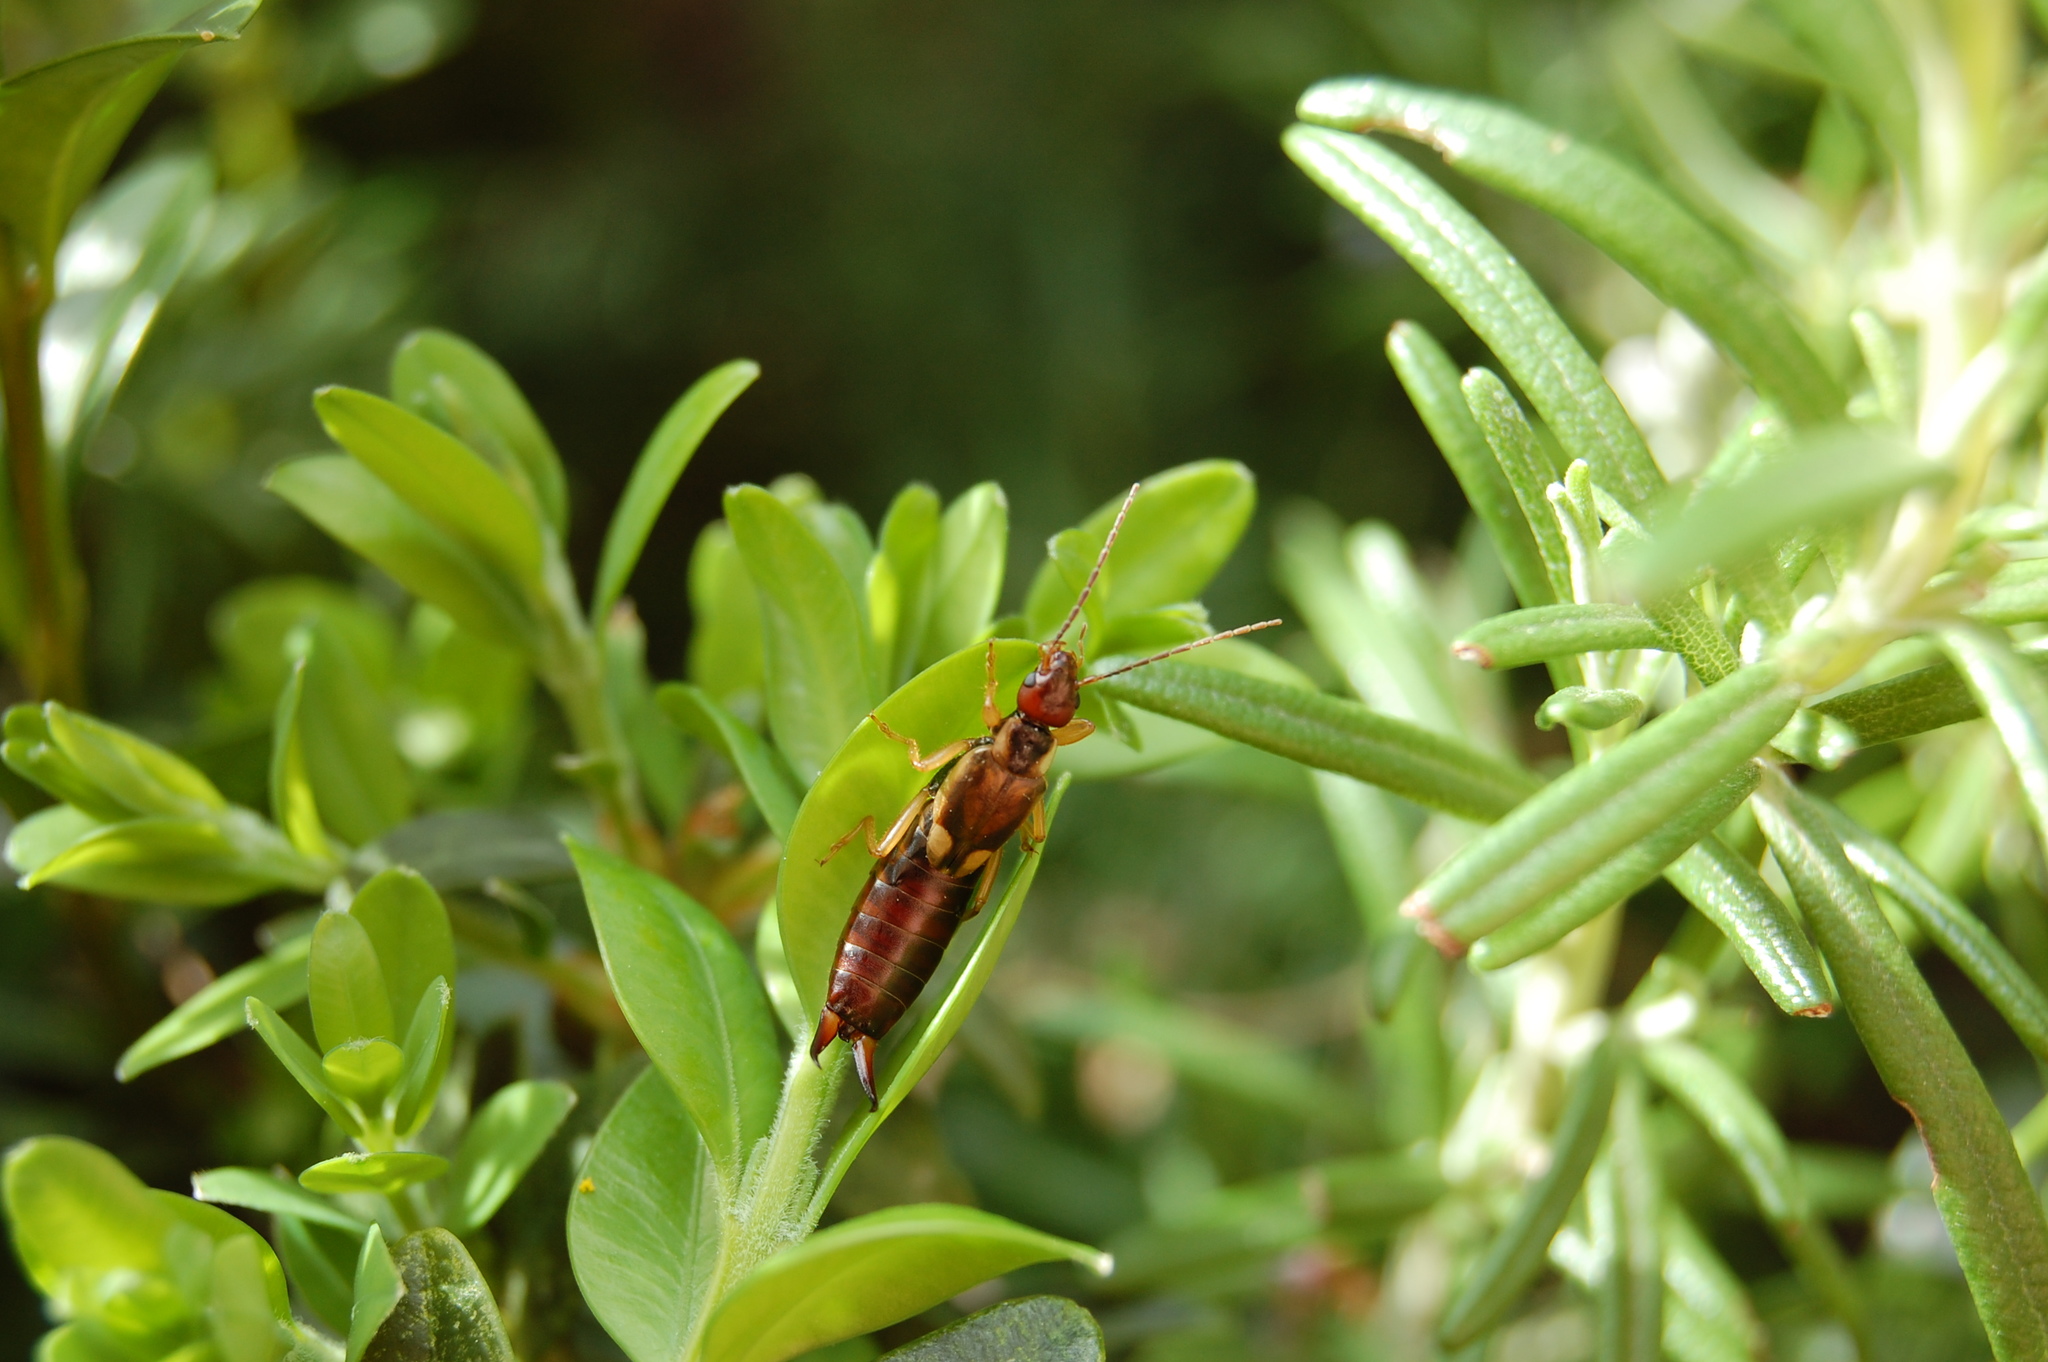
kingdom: Animalia
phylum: Arthropoda
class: Insecta
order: Dermaptera
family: Forficulidae
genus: Forficula
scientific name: Forficula
